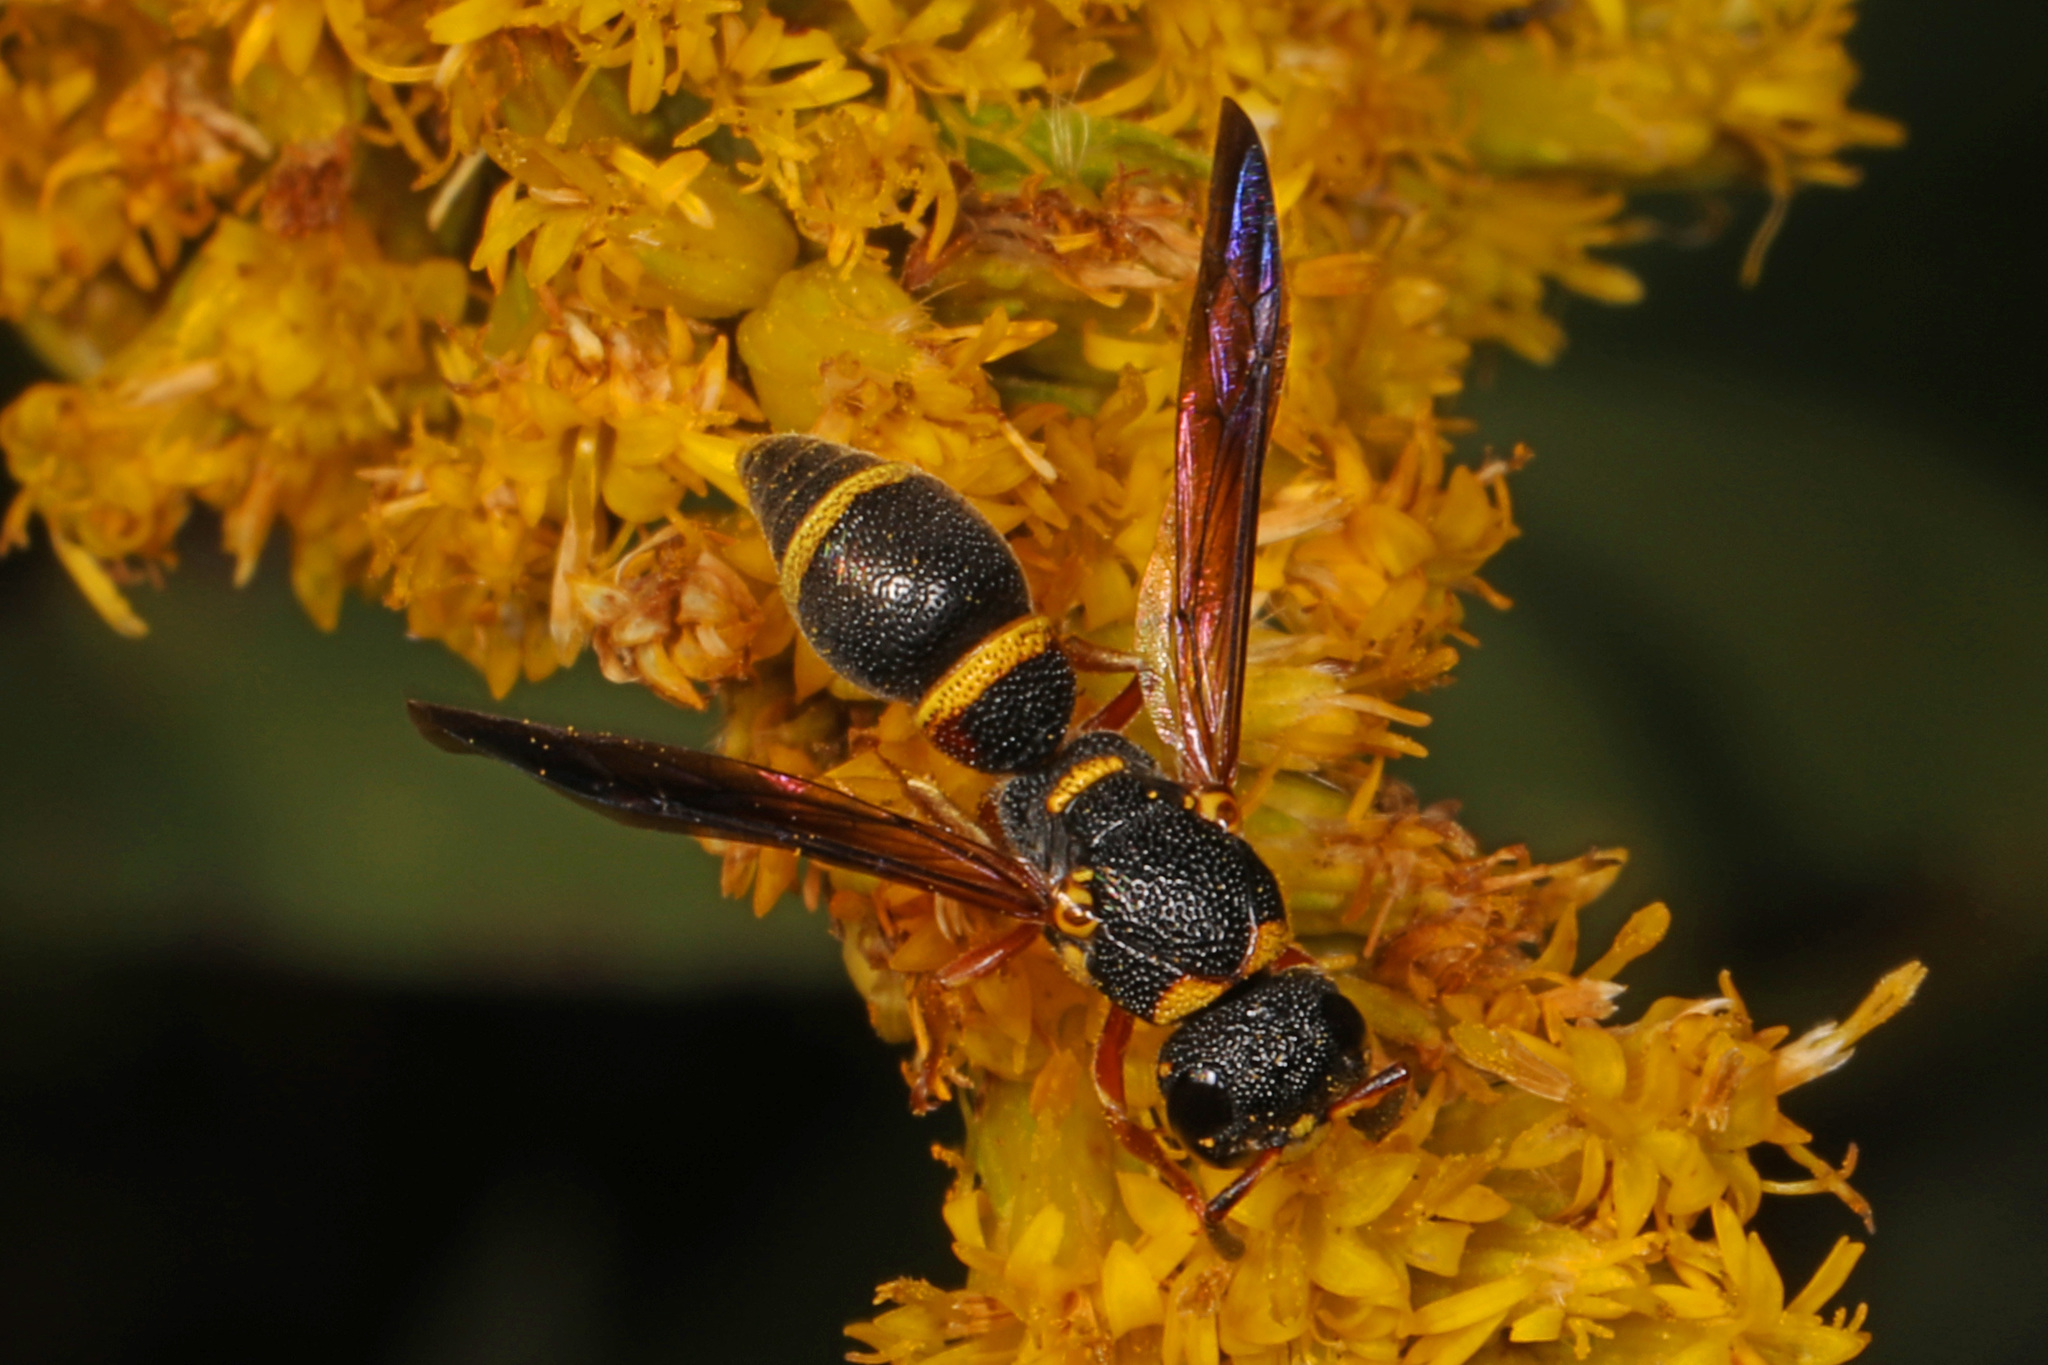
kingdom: Animalia
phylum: Arthropoda
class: Insecta
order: Hymenoptera
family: Eumenidae
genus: Parancistrocerus
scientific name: Parancistrocerus perennis
